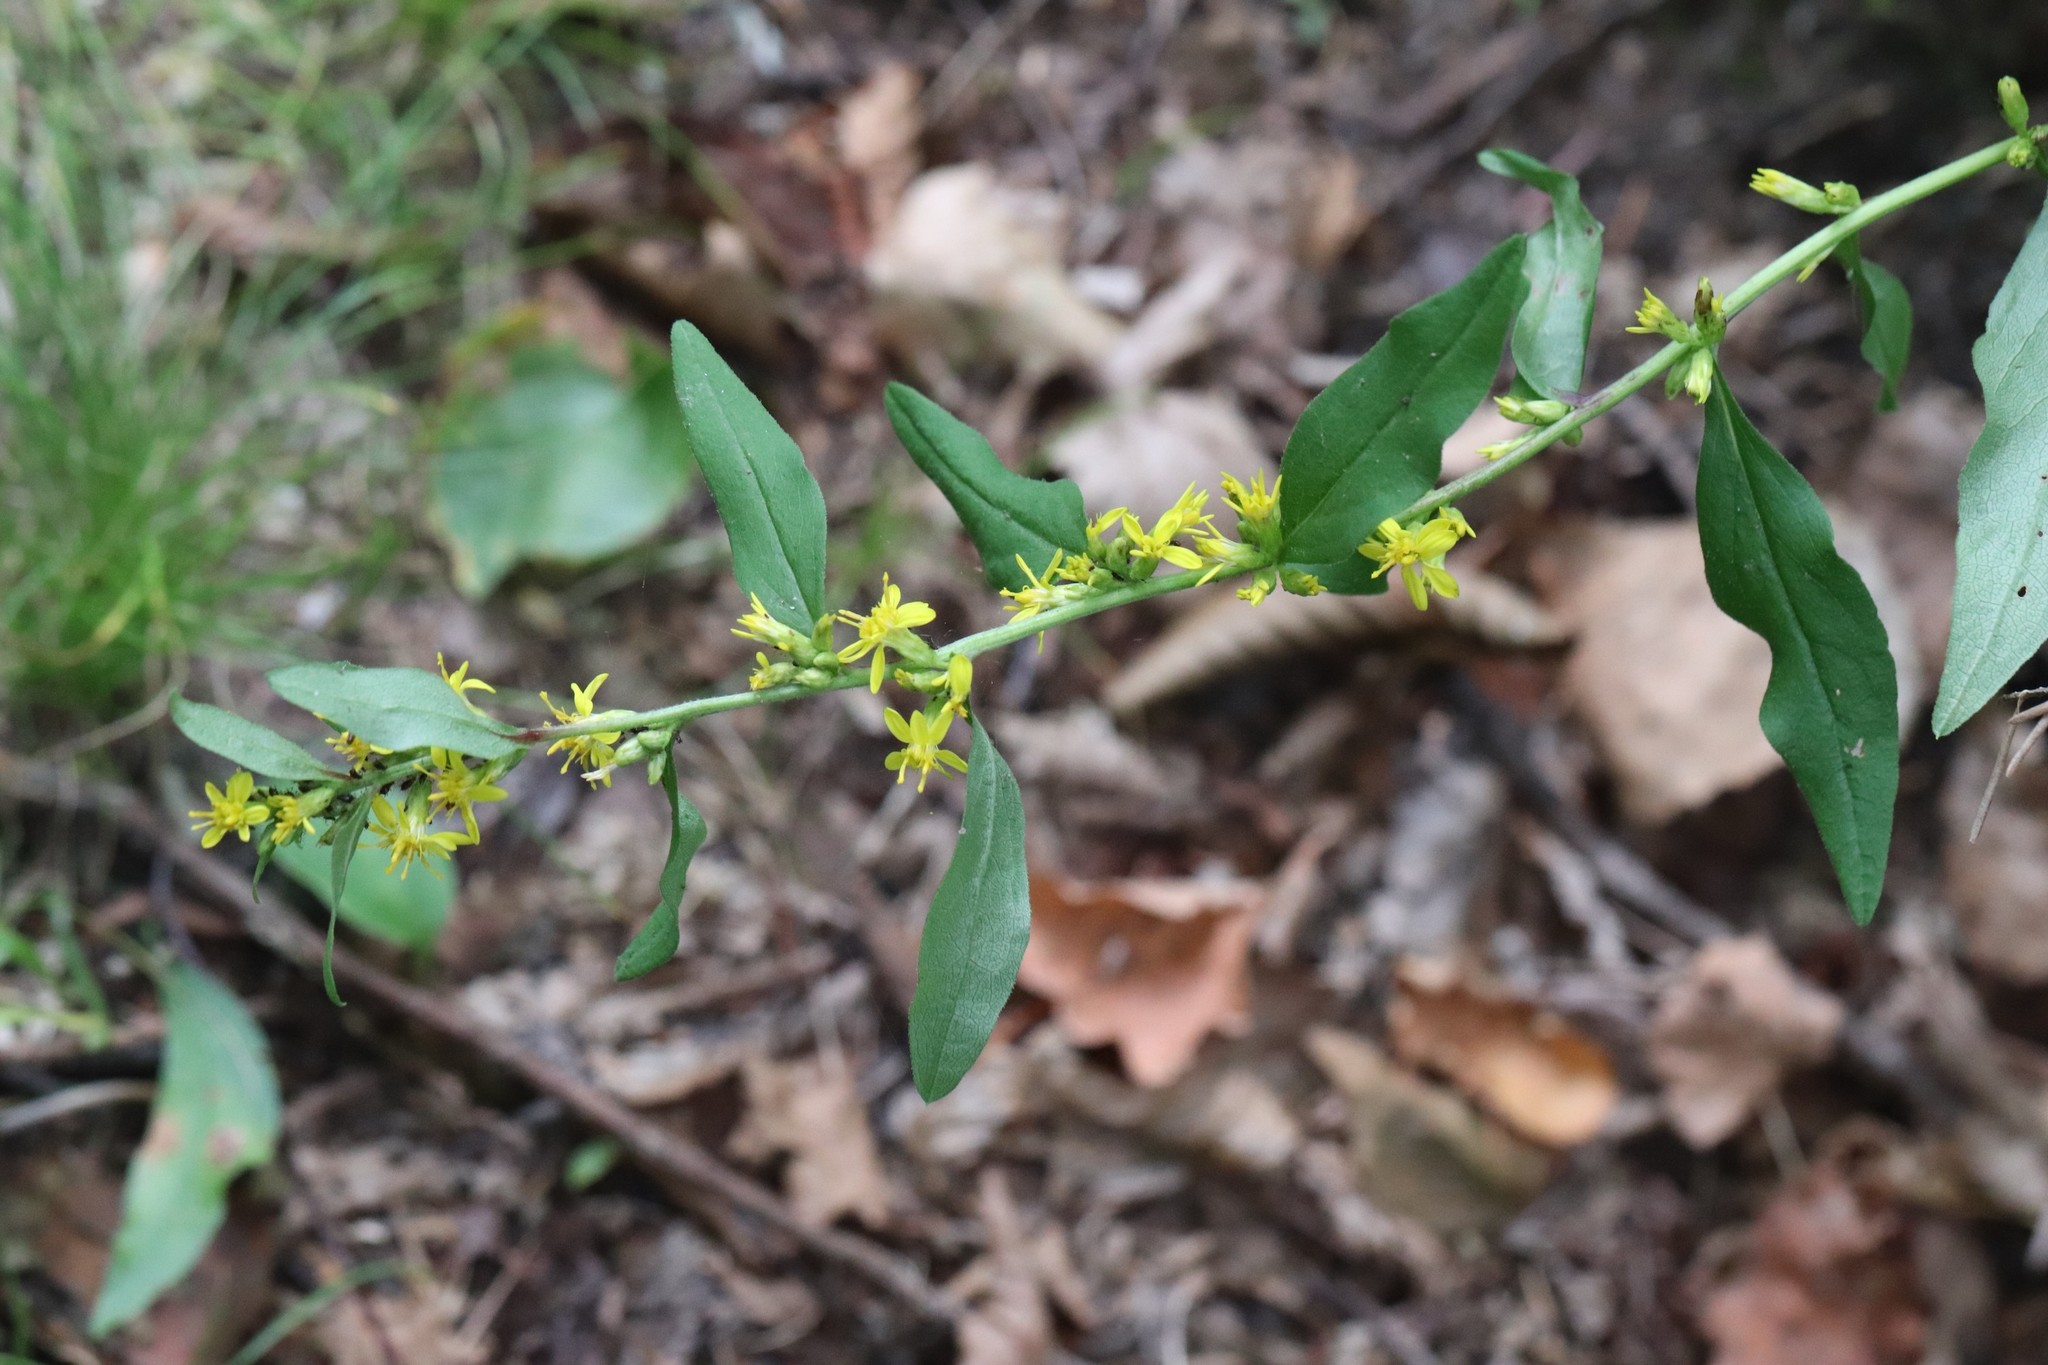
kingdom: Plantae
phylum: Tracheophyta
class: Magnoliopsida
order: Asterales
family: Asteraceae
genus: Solidago
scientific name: Solidago decurrens
